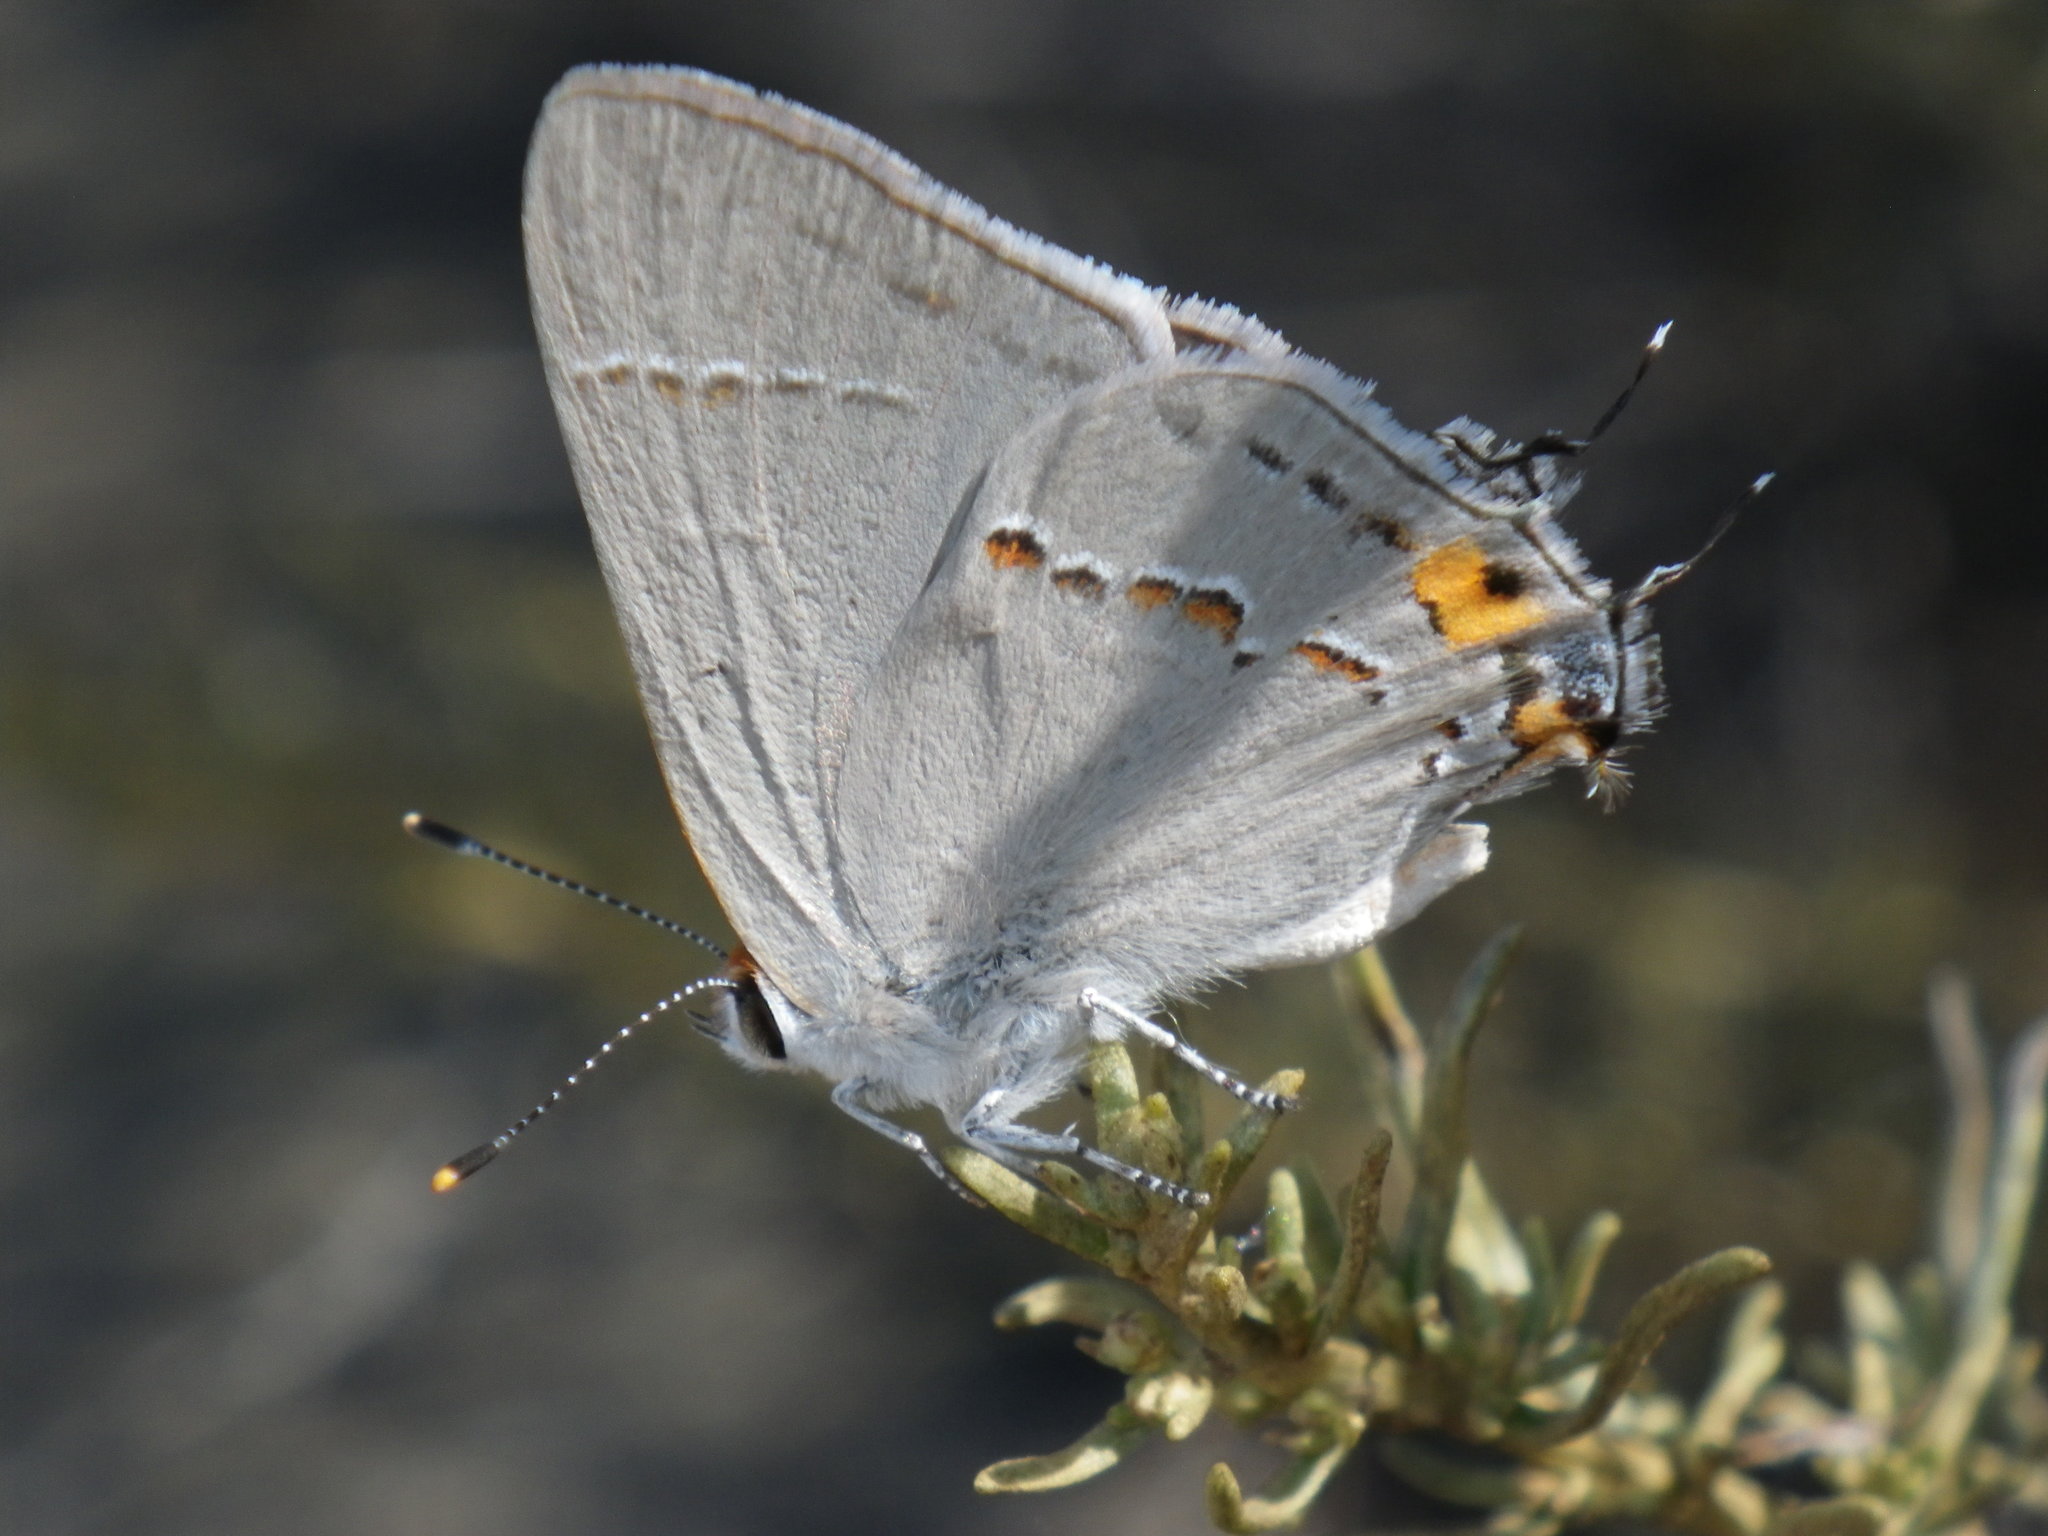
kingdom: Animalia
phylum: Arthropoda
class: Insecta
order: Lepidoptera
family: Lycaenidae
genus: Strymon
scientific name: Strymon melinus
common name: Gray hairstreak
